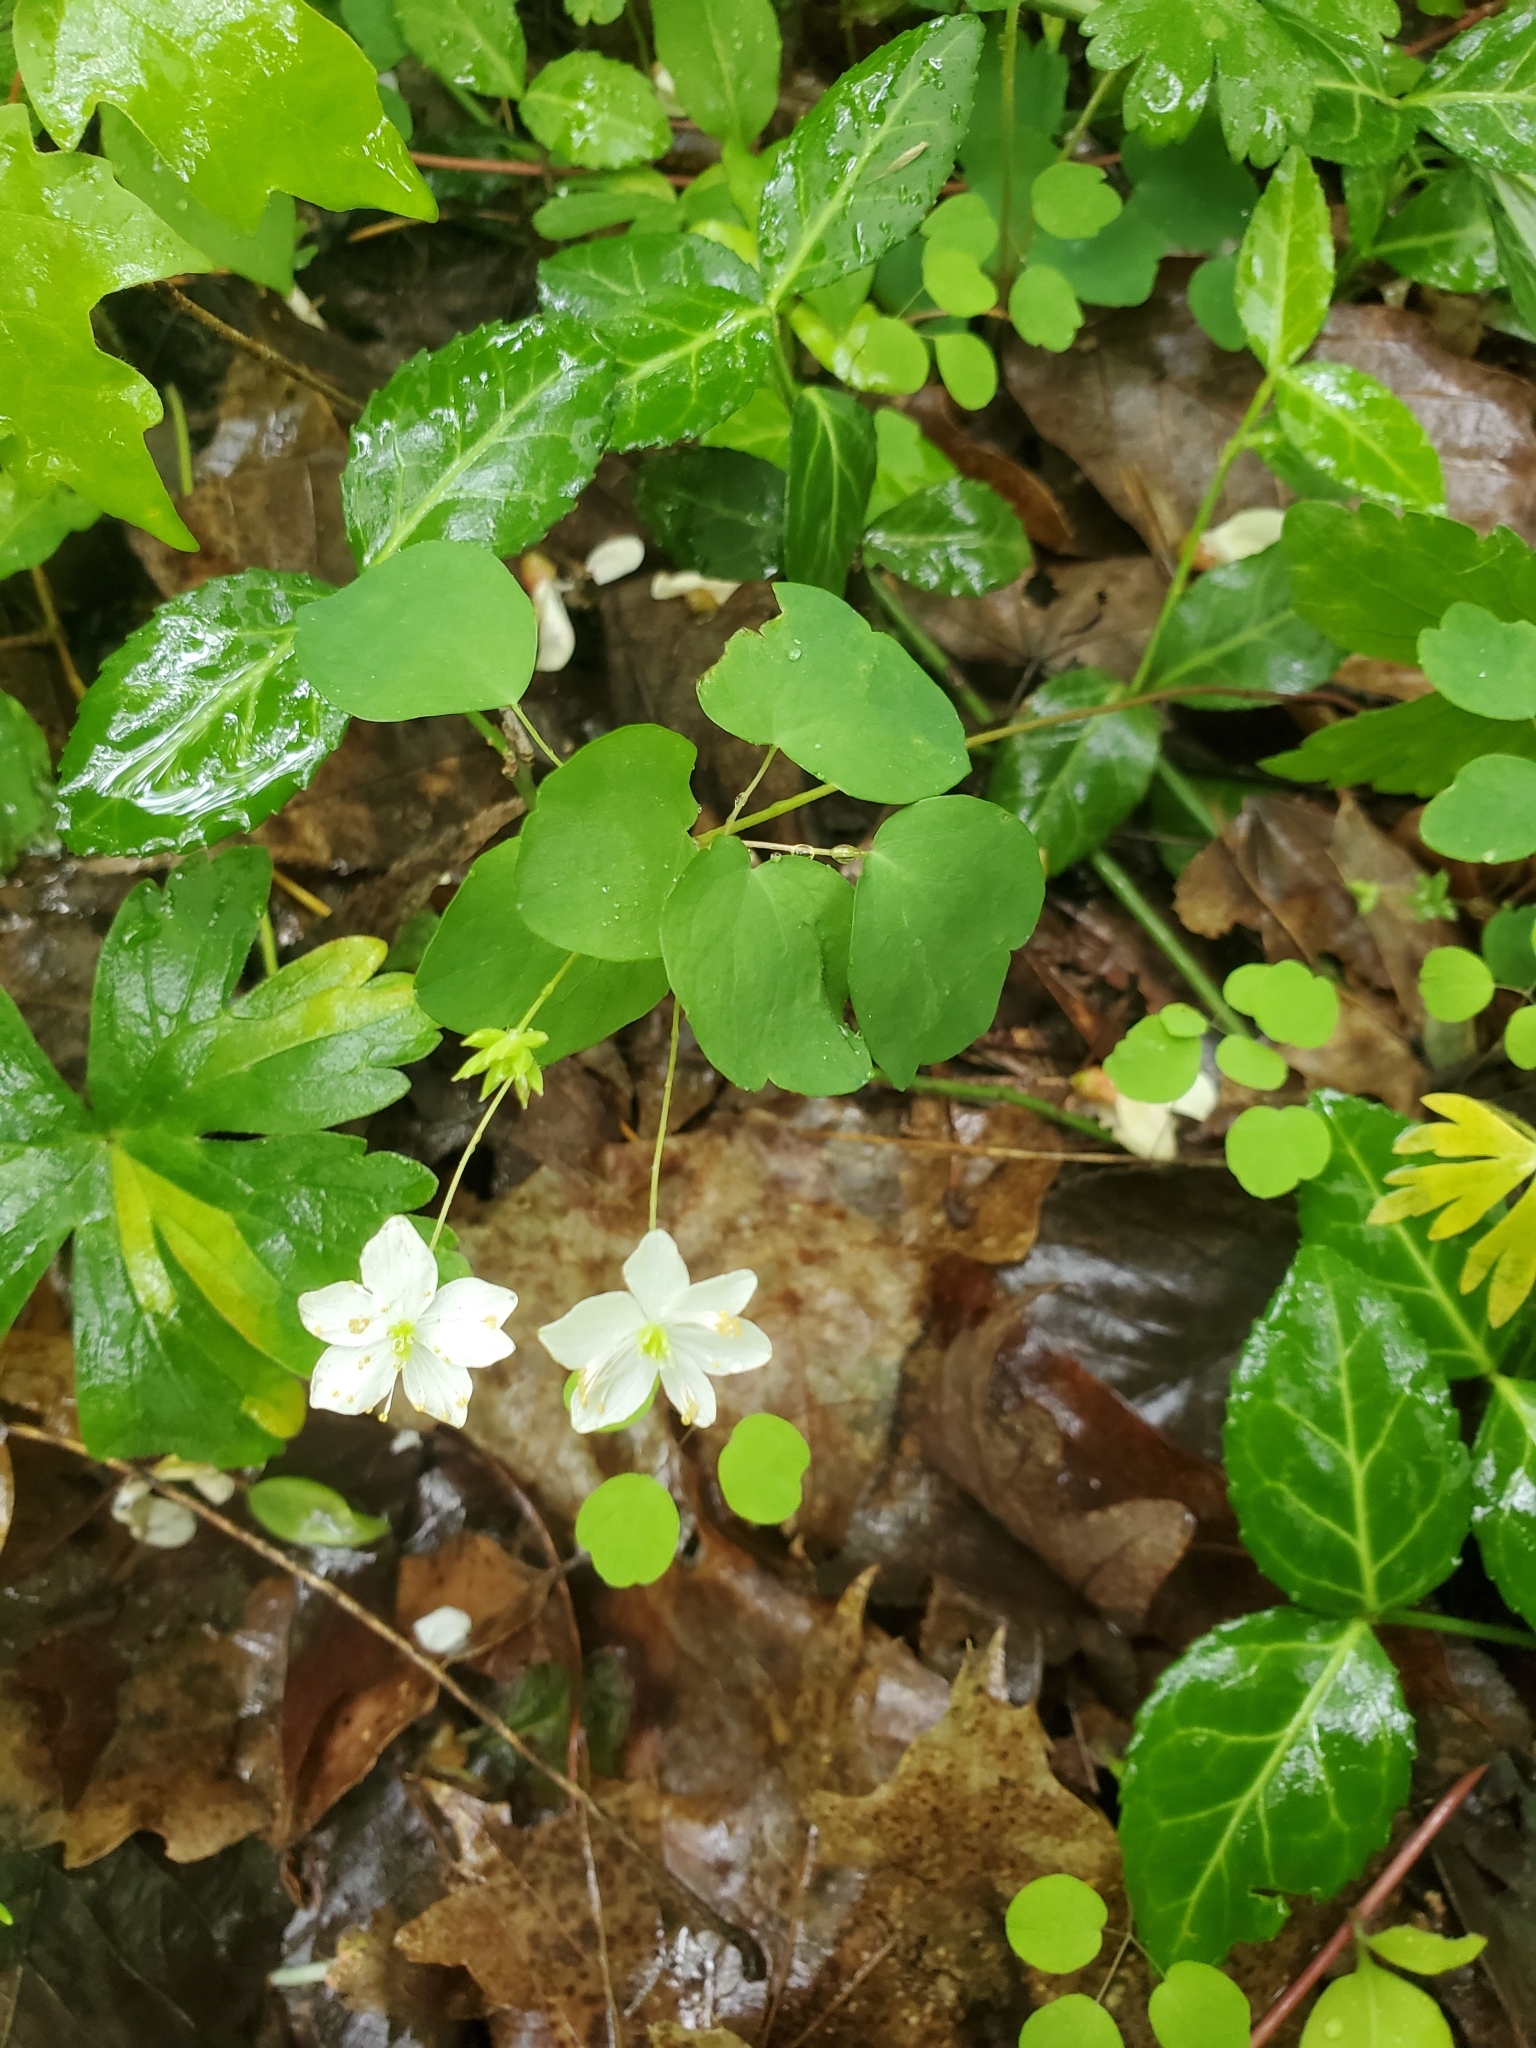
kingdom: Plantae
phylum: Tracheophyta
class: Magnoliopsida
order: Ranunculales
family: Ranunculaceae
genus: Thalictrum
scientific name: Thalictrum thalictroides
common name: Rue-anemone
